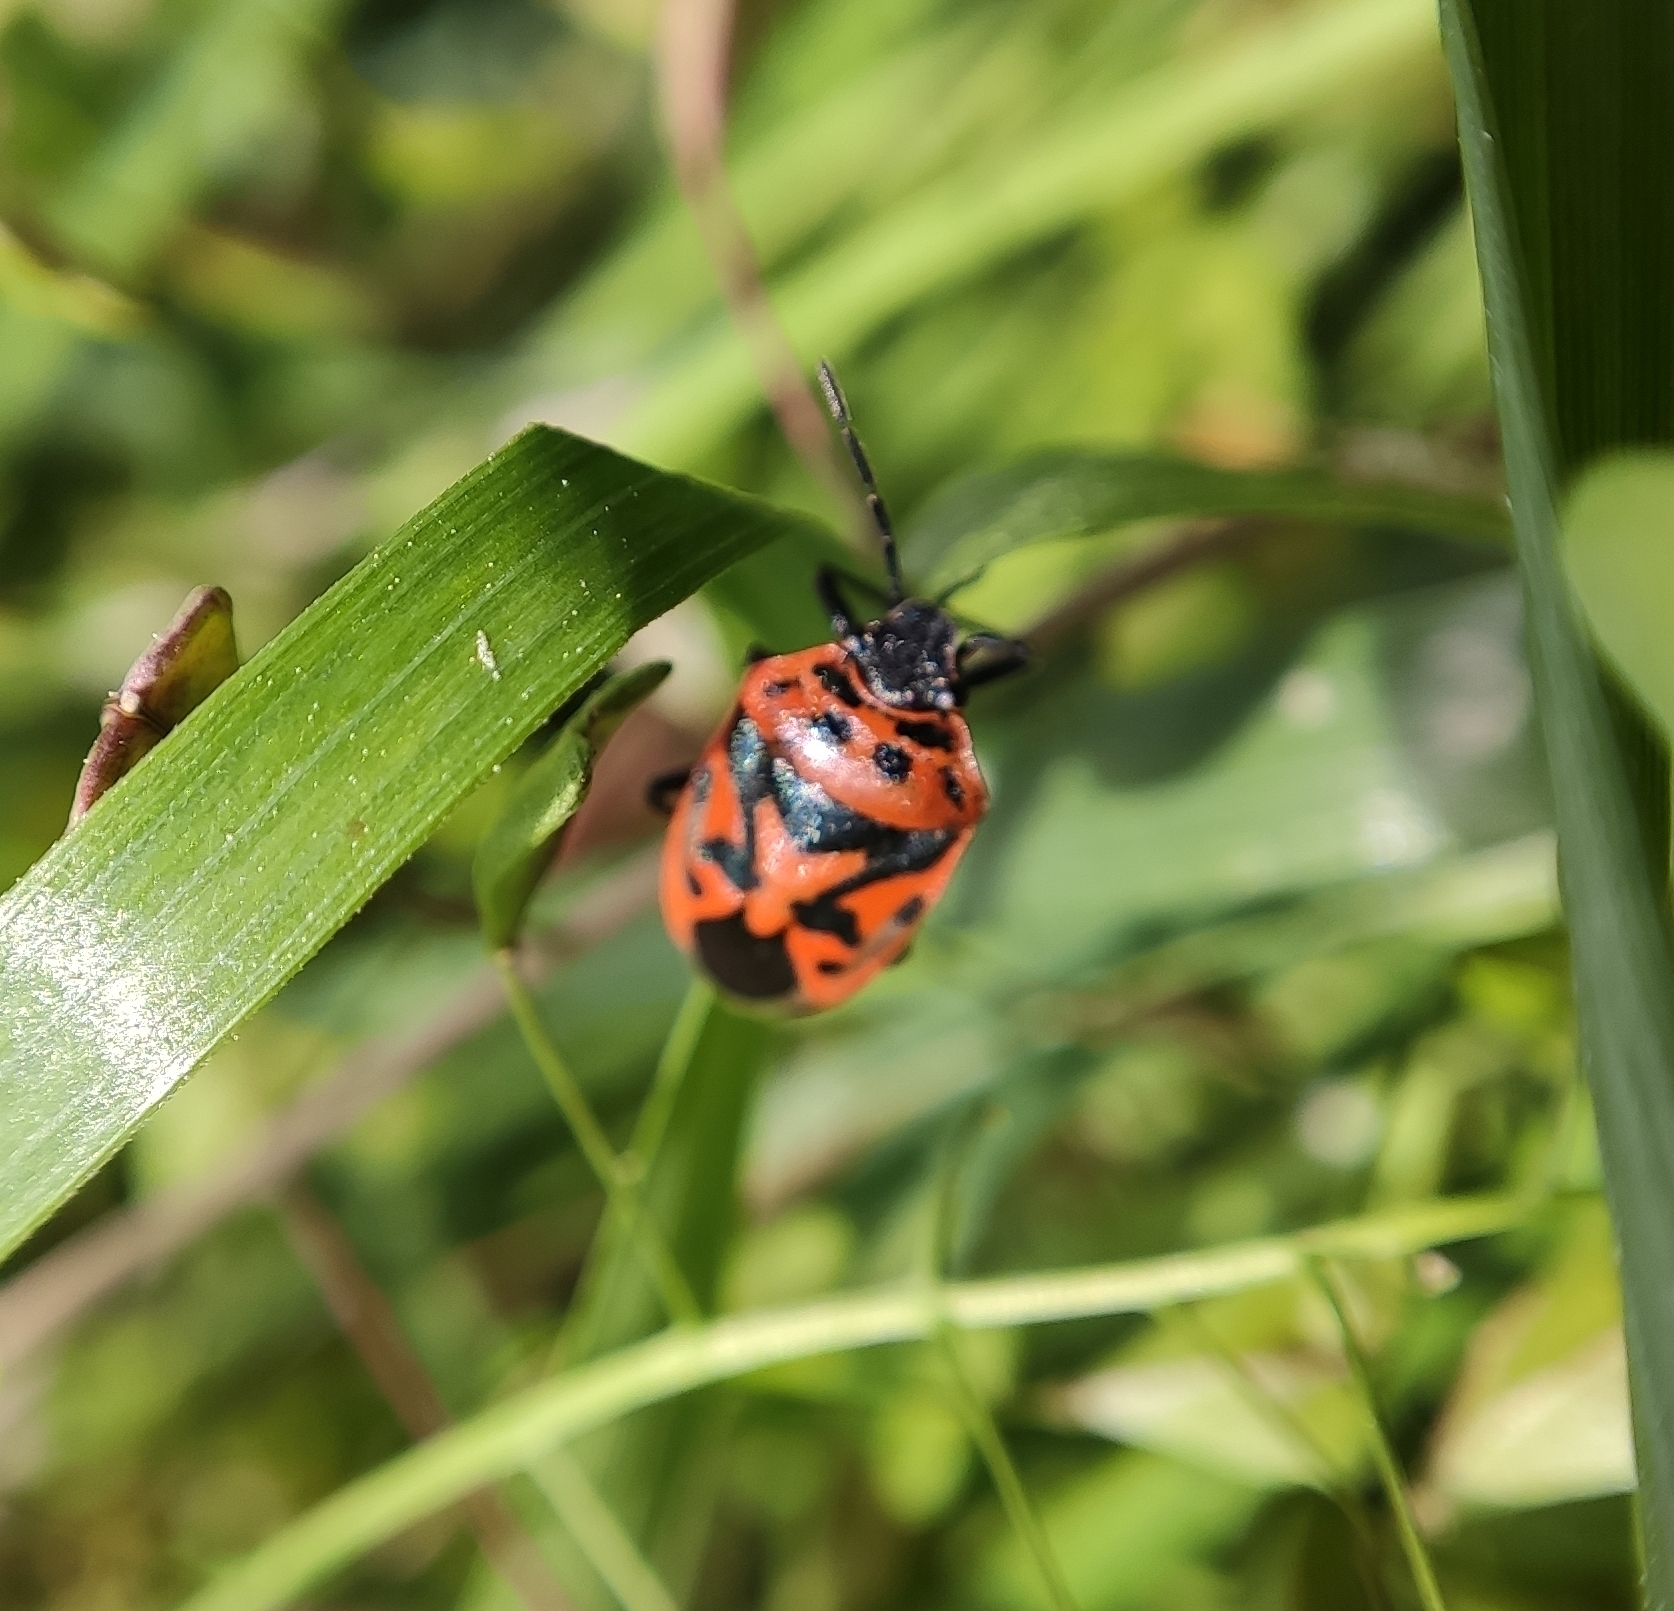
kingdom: Animalia
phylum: Arthropoda
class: Insecta
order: Hemiptera
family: Pentatomidae
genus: Eurydema
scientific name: Eurydema ornata
